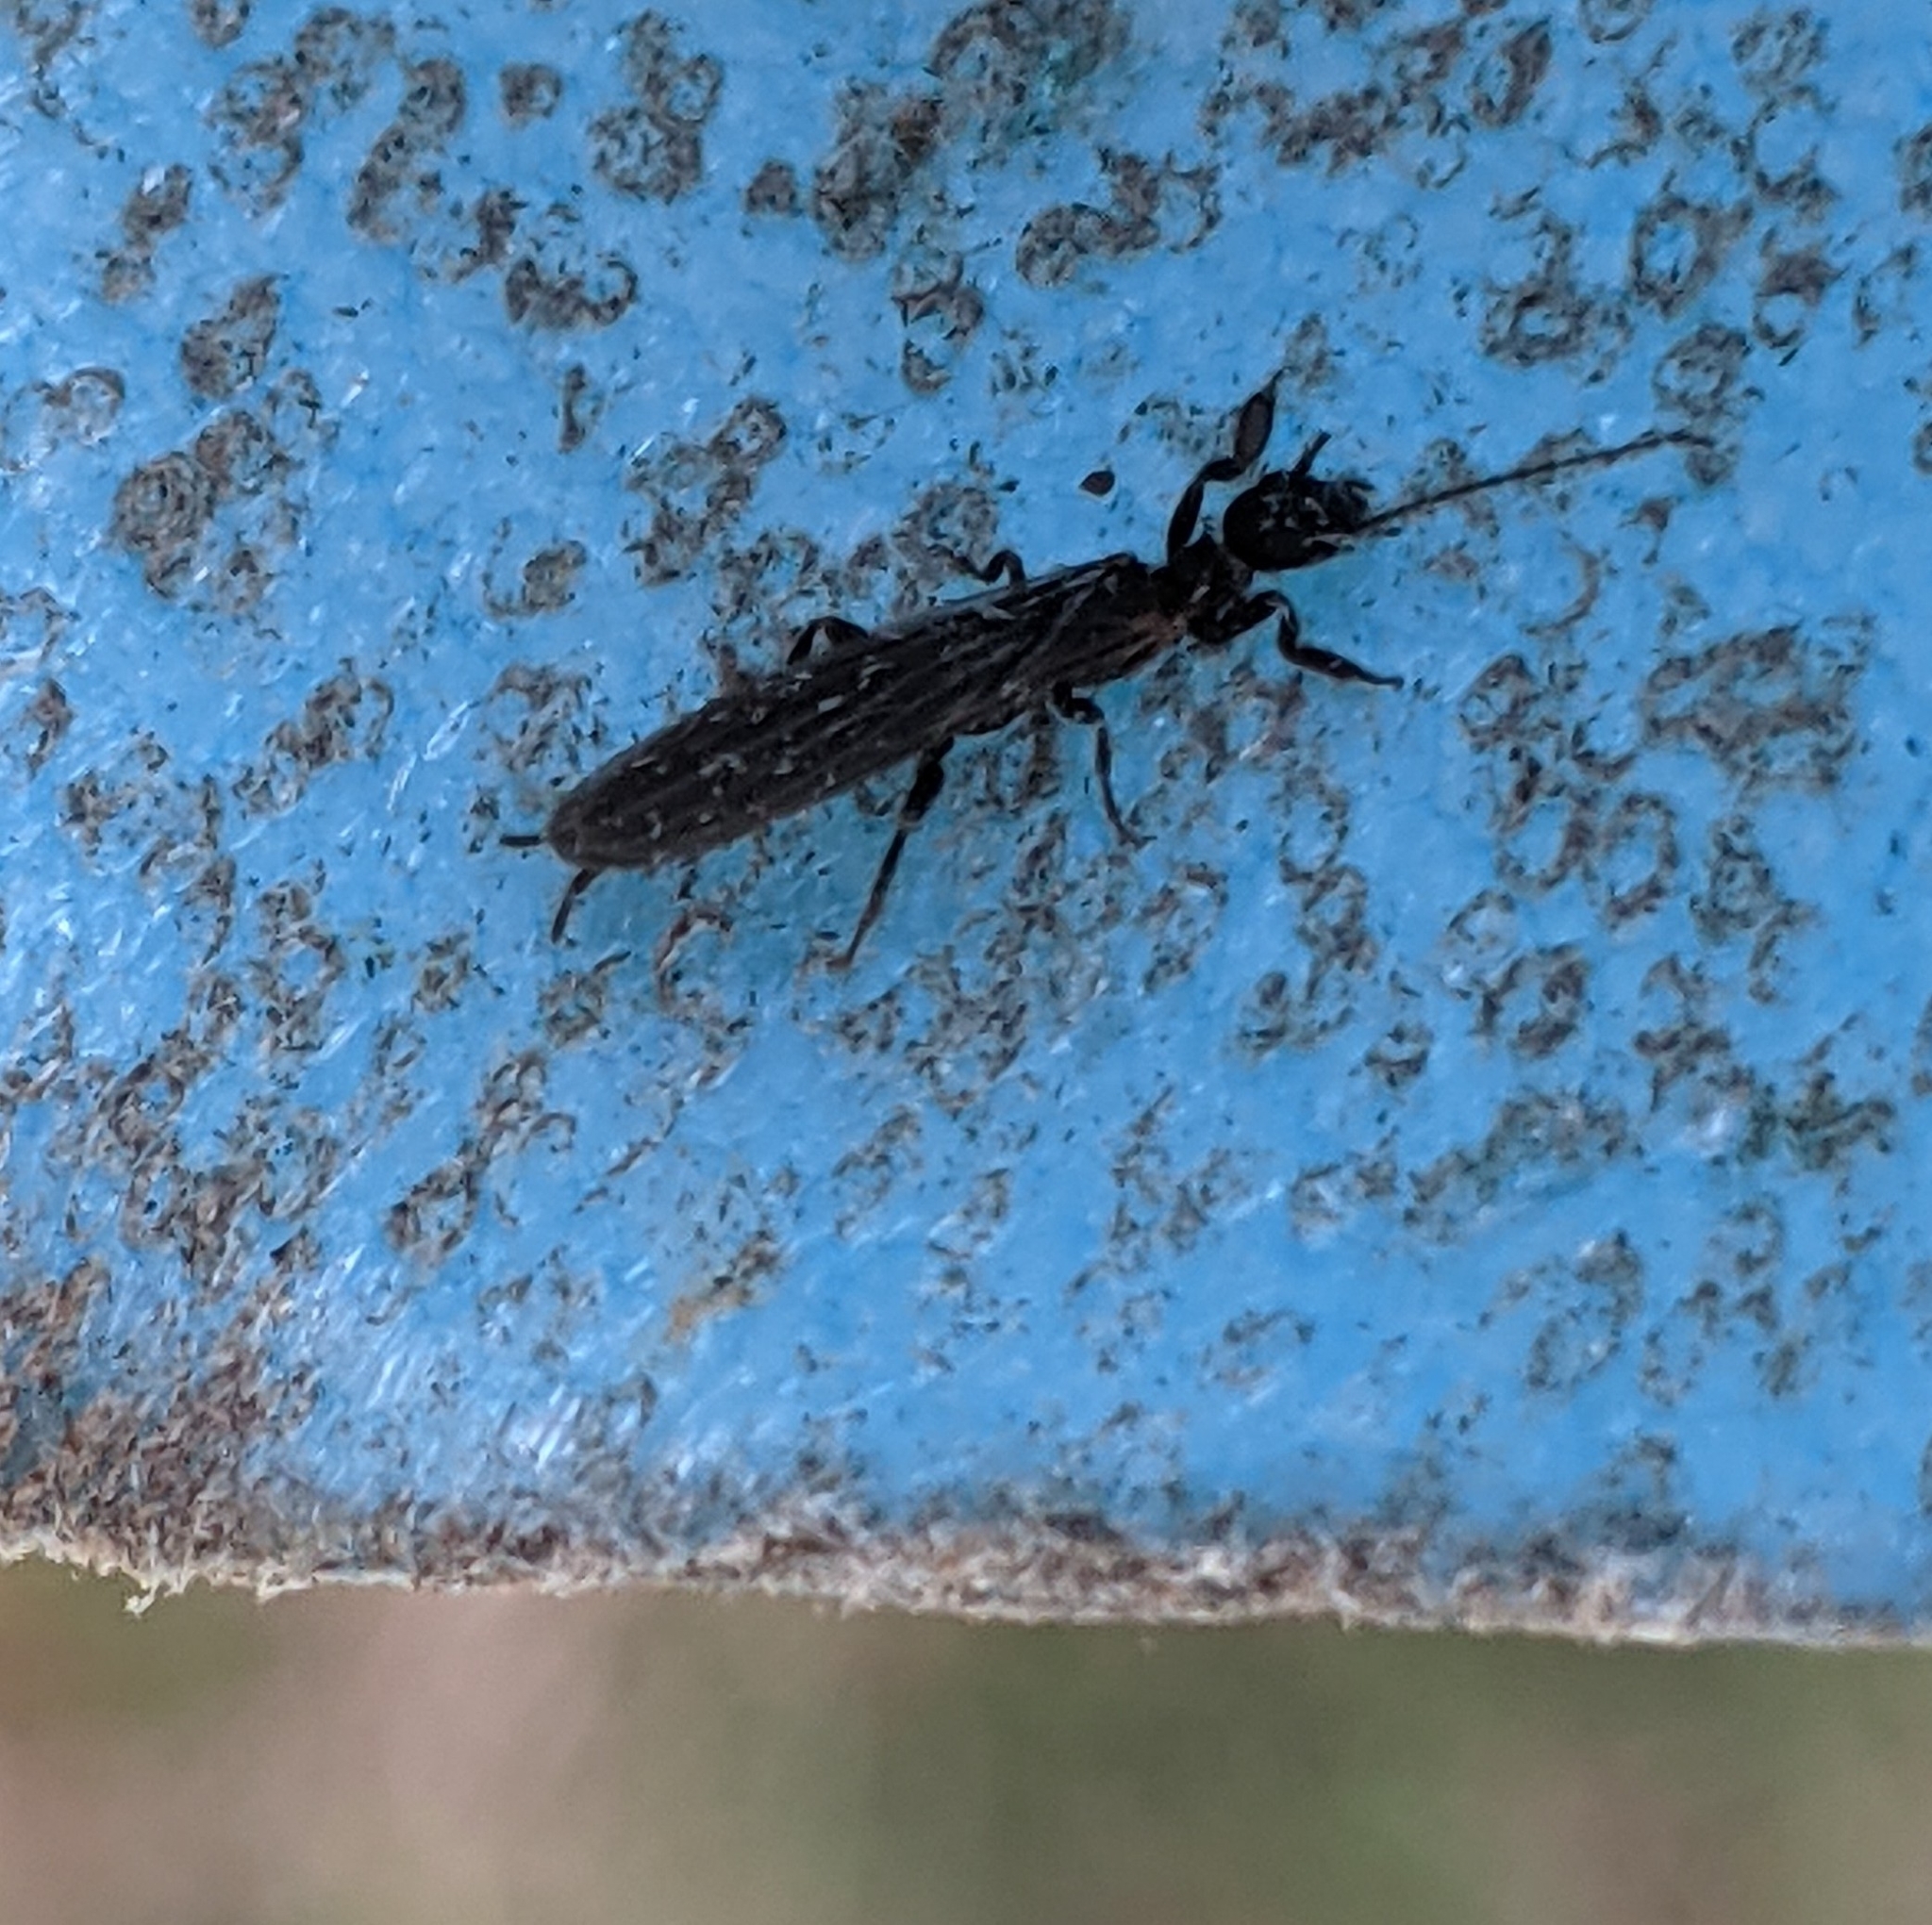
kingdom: Animalia
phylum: Arthropoda
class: Insecta
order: Embioptera
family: Oligotomidae
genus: Oligotoma
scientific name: Oligotoma nigra
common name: Black webspinner
